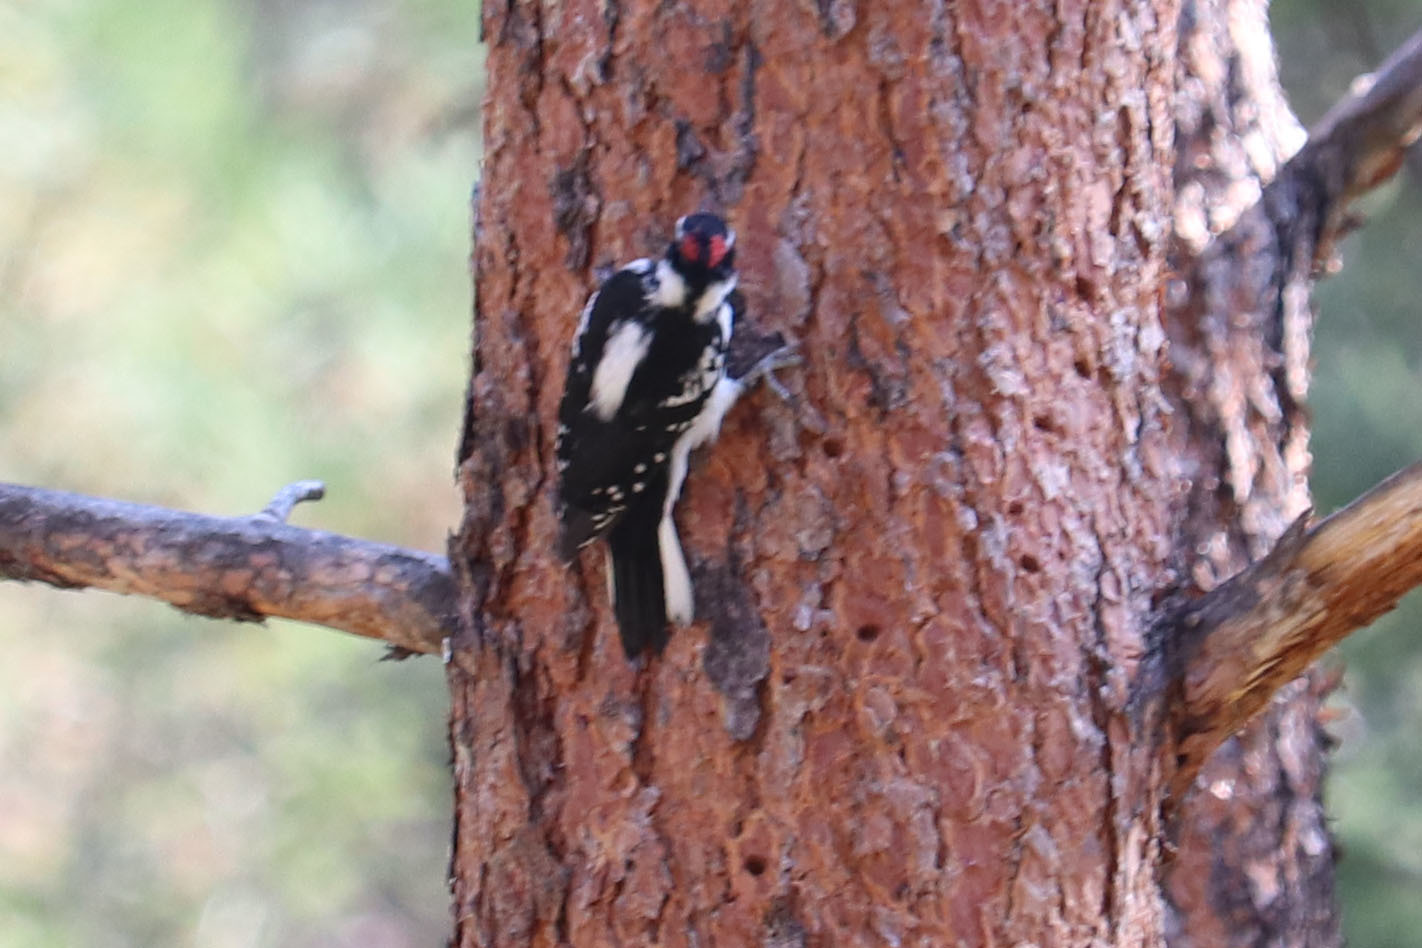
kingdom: Animalia
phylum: Chordata
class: Aves
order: Piciformes
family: Picidae
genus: Leuconotopicus
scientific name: Leuconotopicus villosus
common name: Hairy woodpecker
